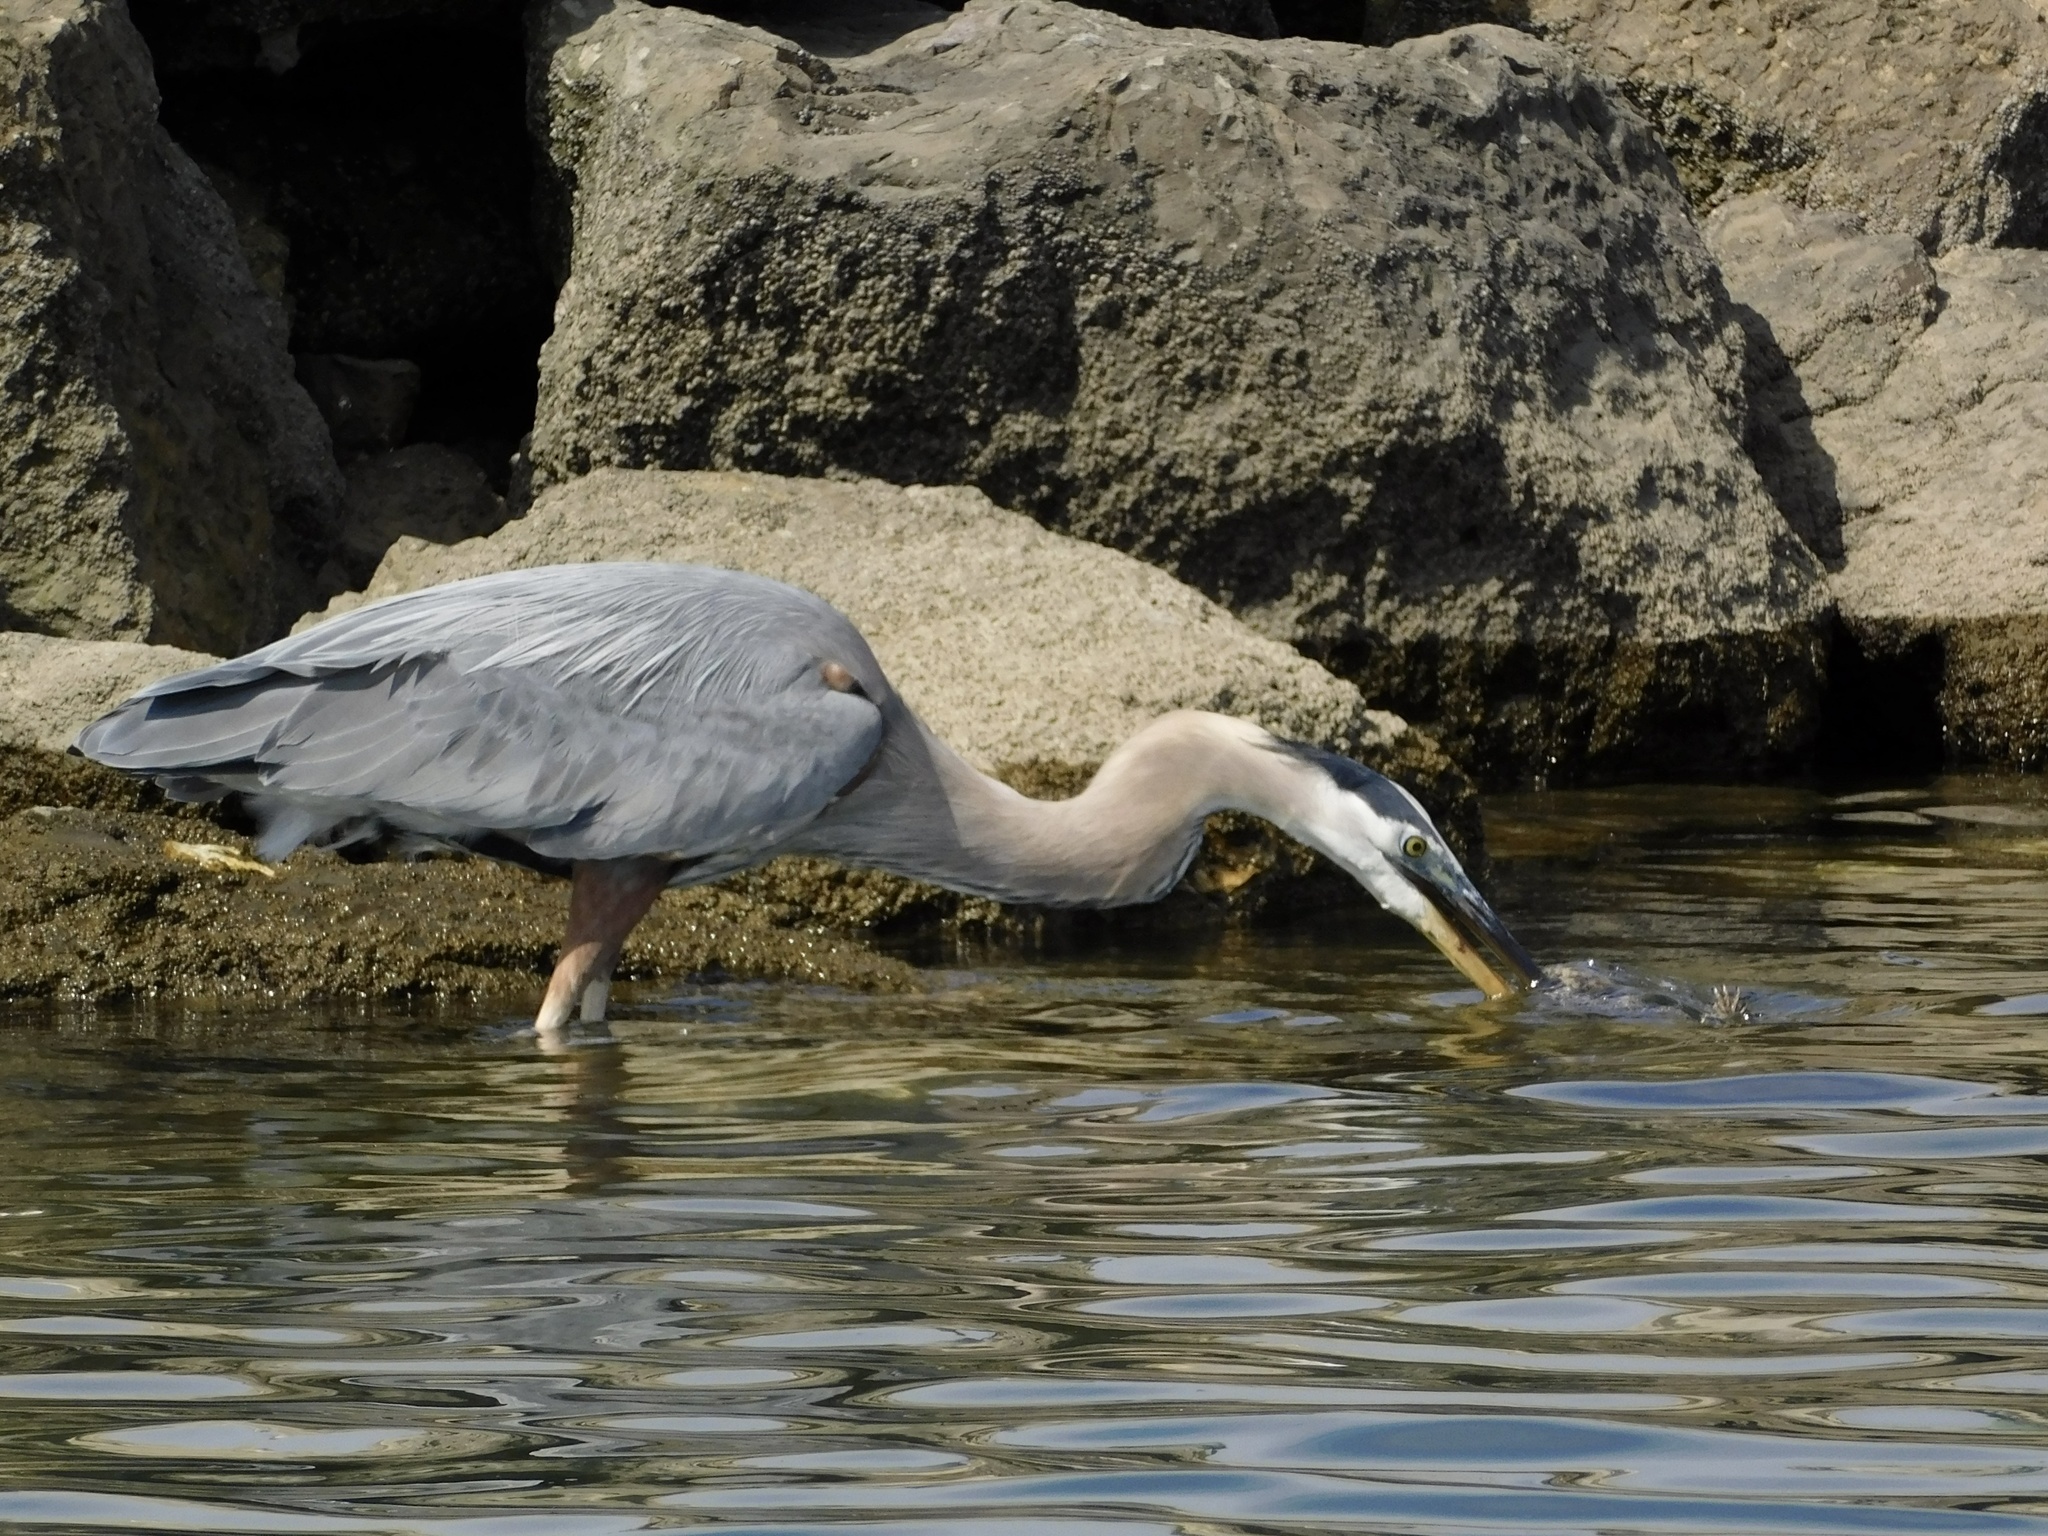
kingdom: Animalia
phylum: Chordata
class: Aves
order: Pelecaniformes
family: Ardeidae
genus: Ardea
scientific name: Ardea herodias
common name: Great blue heron
